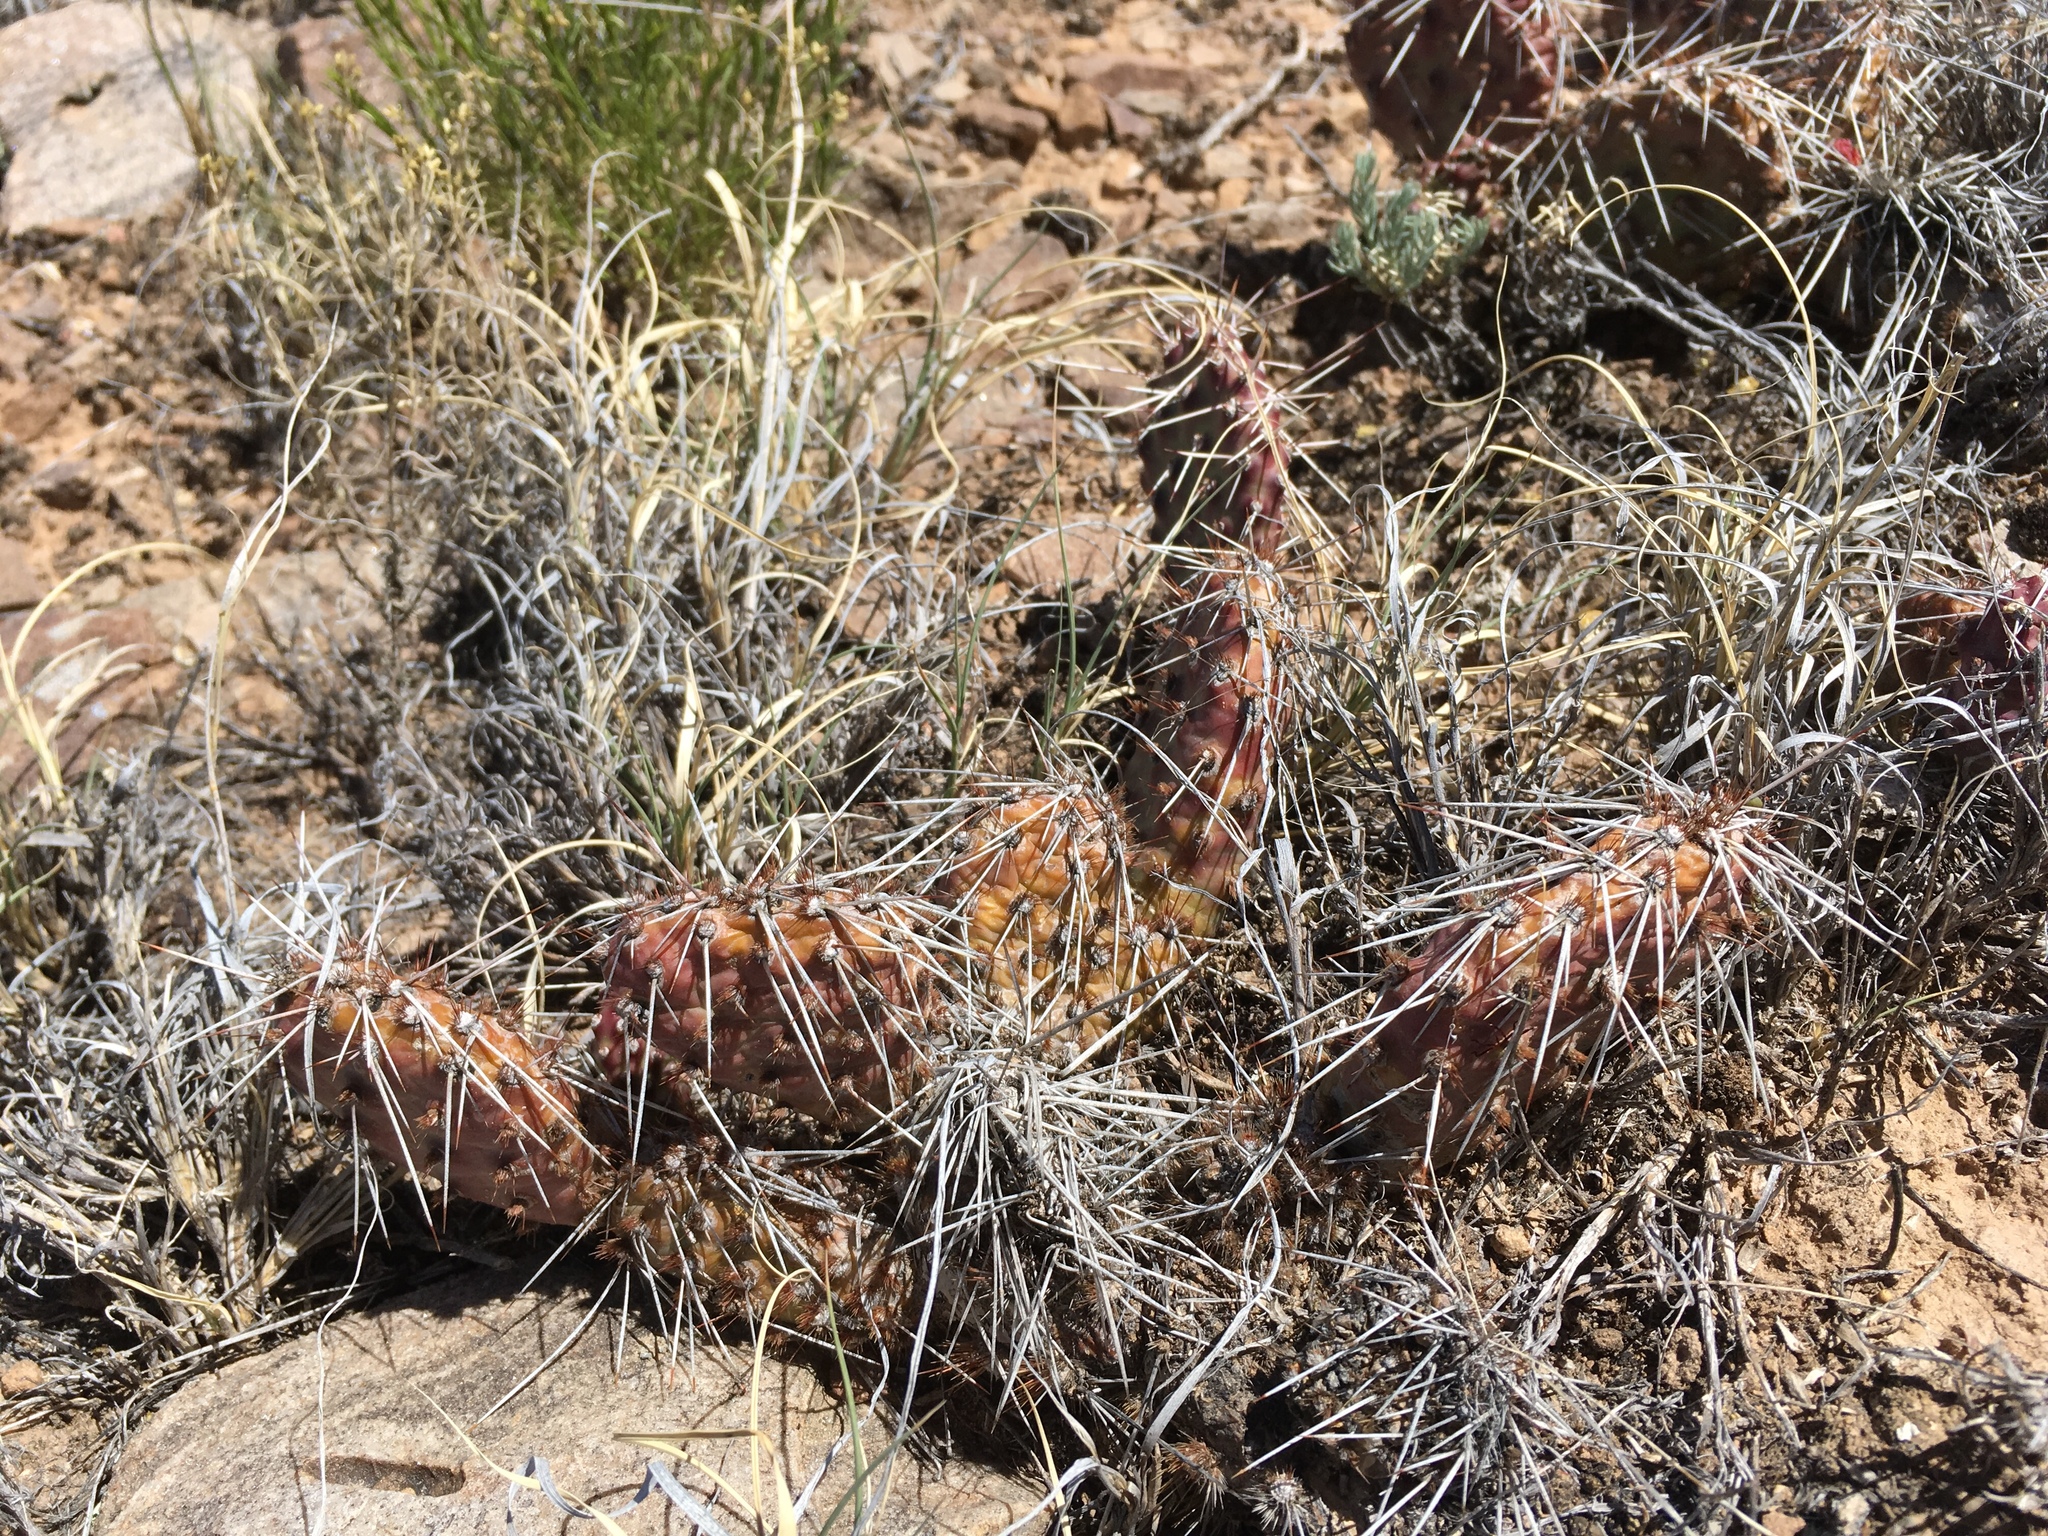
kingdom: Plantae
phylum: Tracheophyta
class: Magnoliopsida
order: Caryophyllales
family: Cactaceae
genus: Opuntia
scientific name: Opuntia polyacantha
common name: Plains prickly-pear
